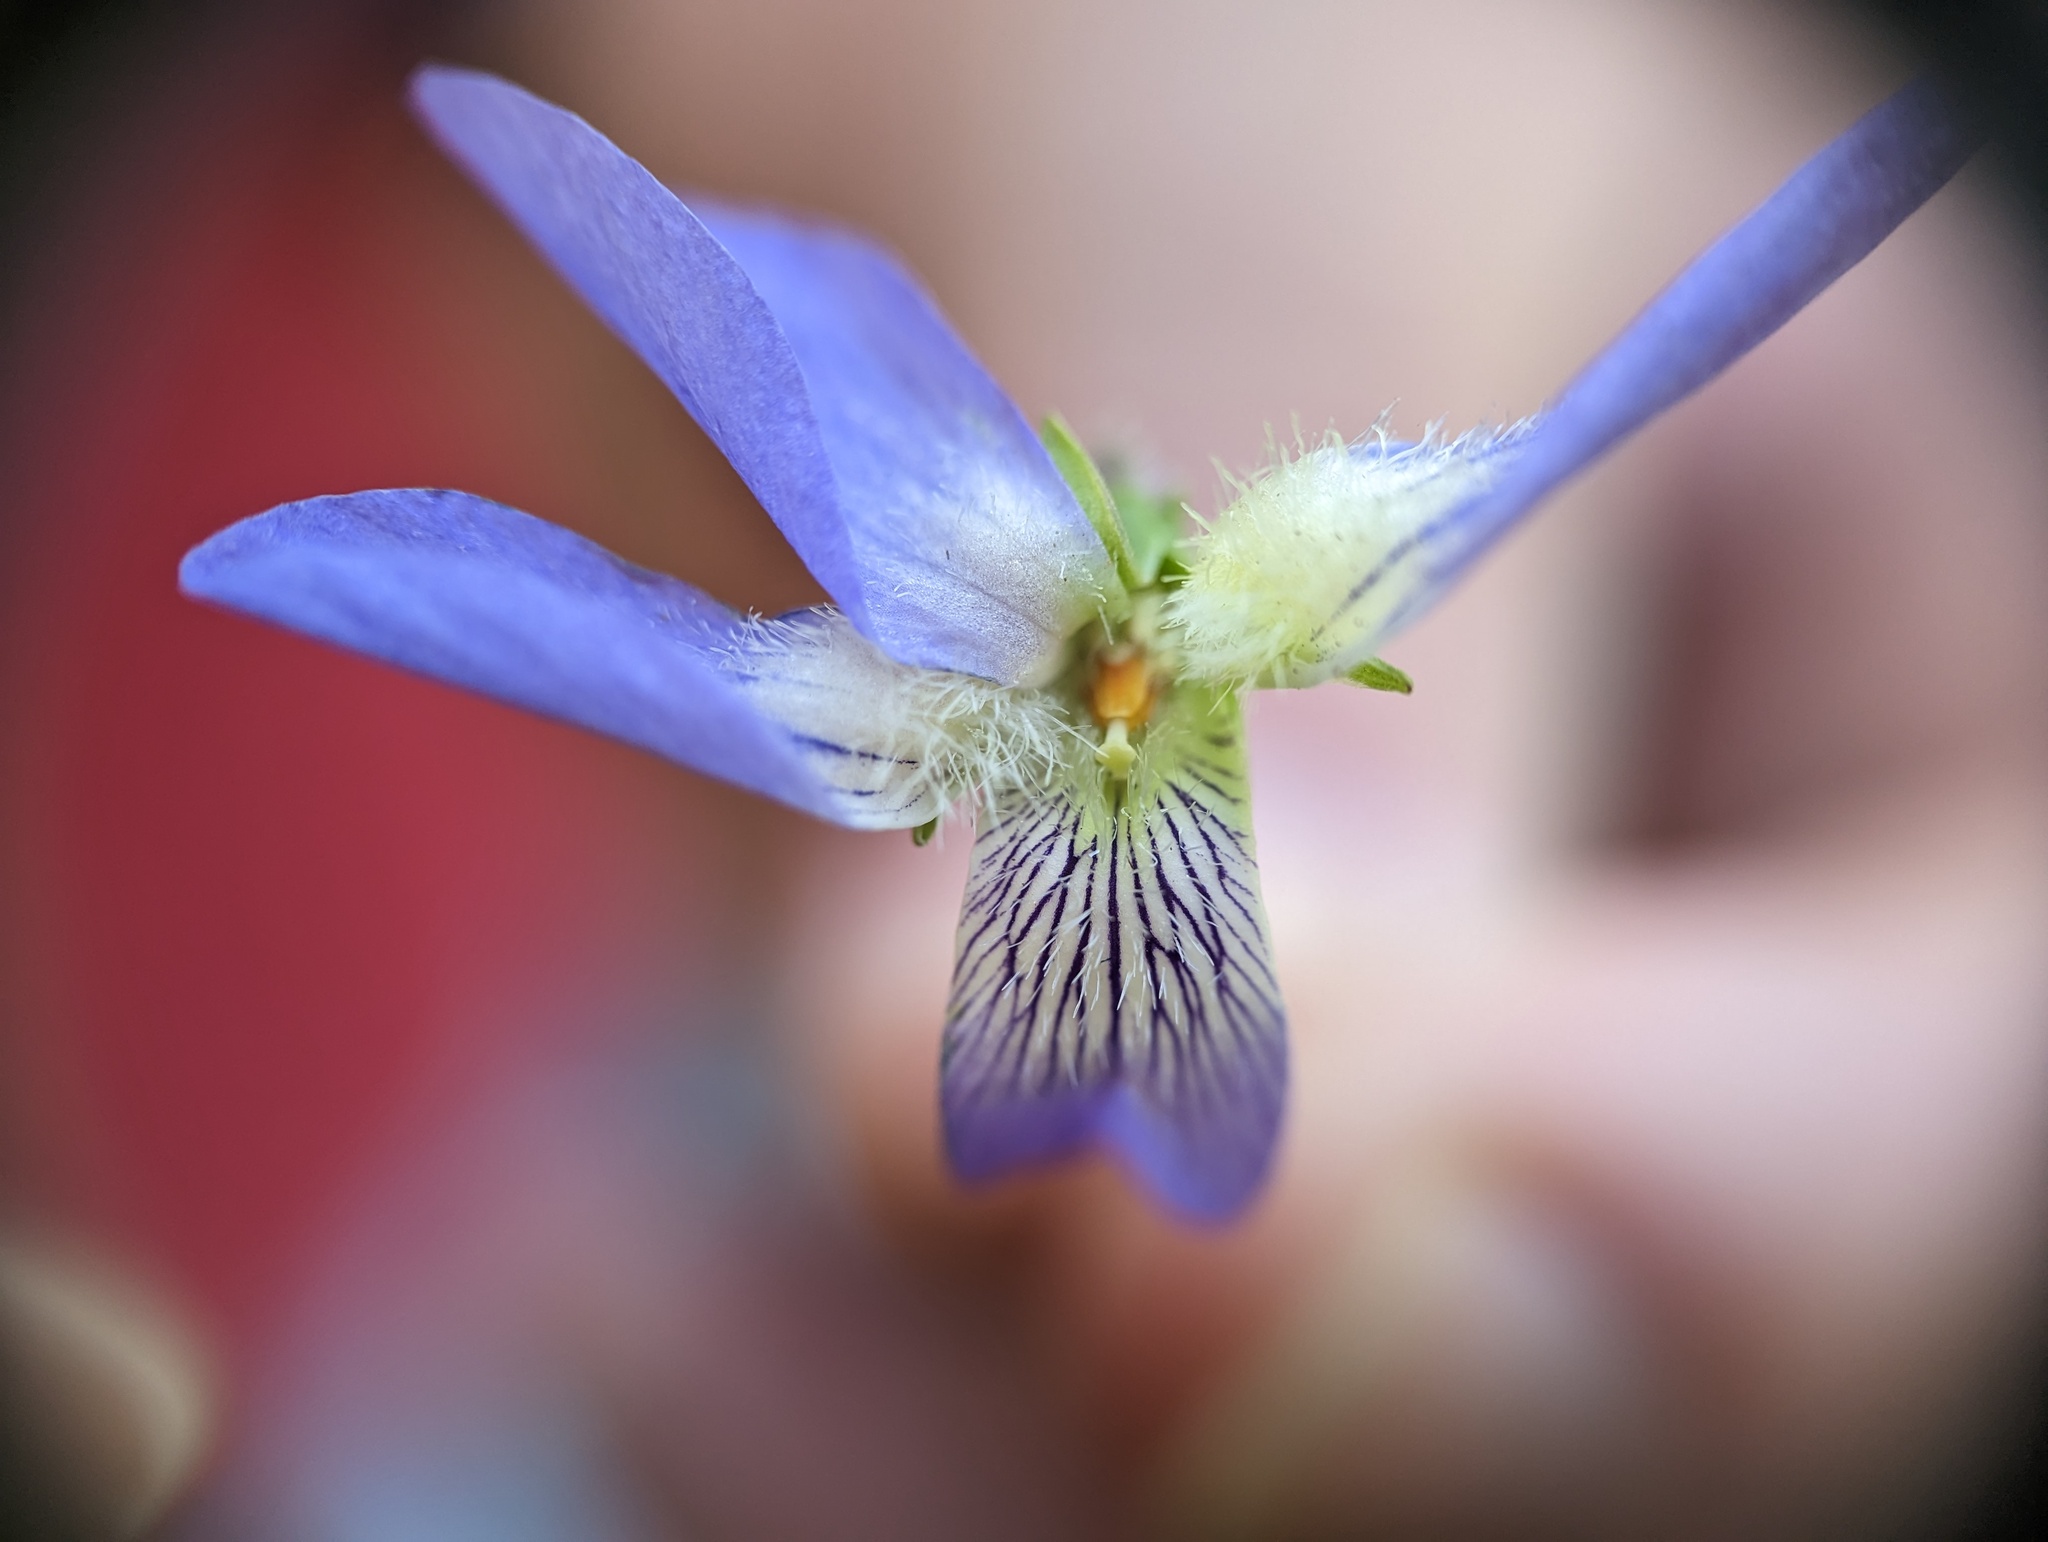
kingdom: Plantae
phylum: Tracheophyta
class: Magnoliopsida
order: Malpighiales
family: Violaceae
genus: Viola
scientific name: Viola septentrionalis
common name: Northern woodland violet
